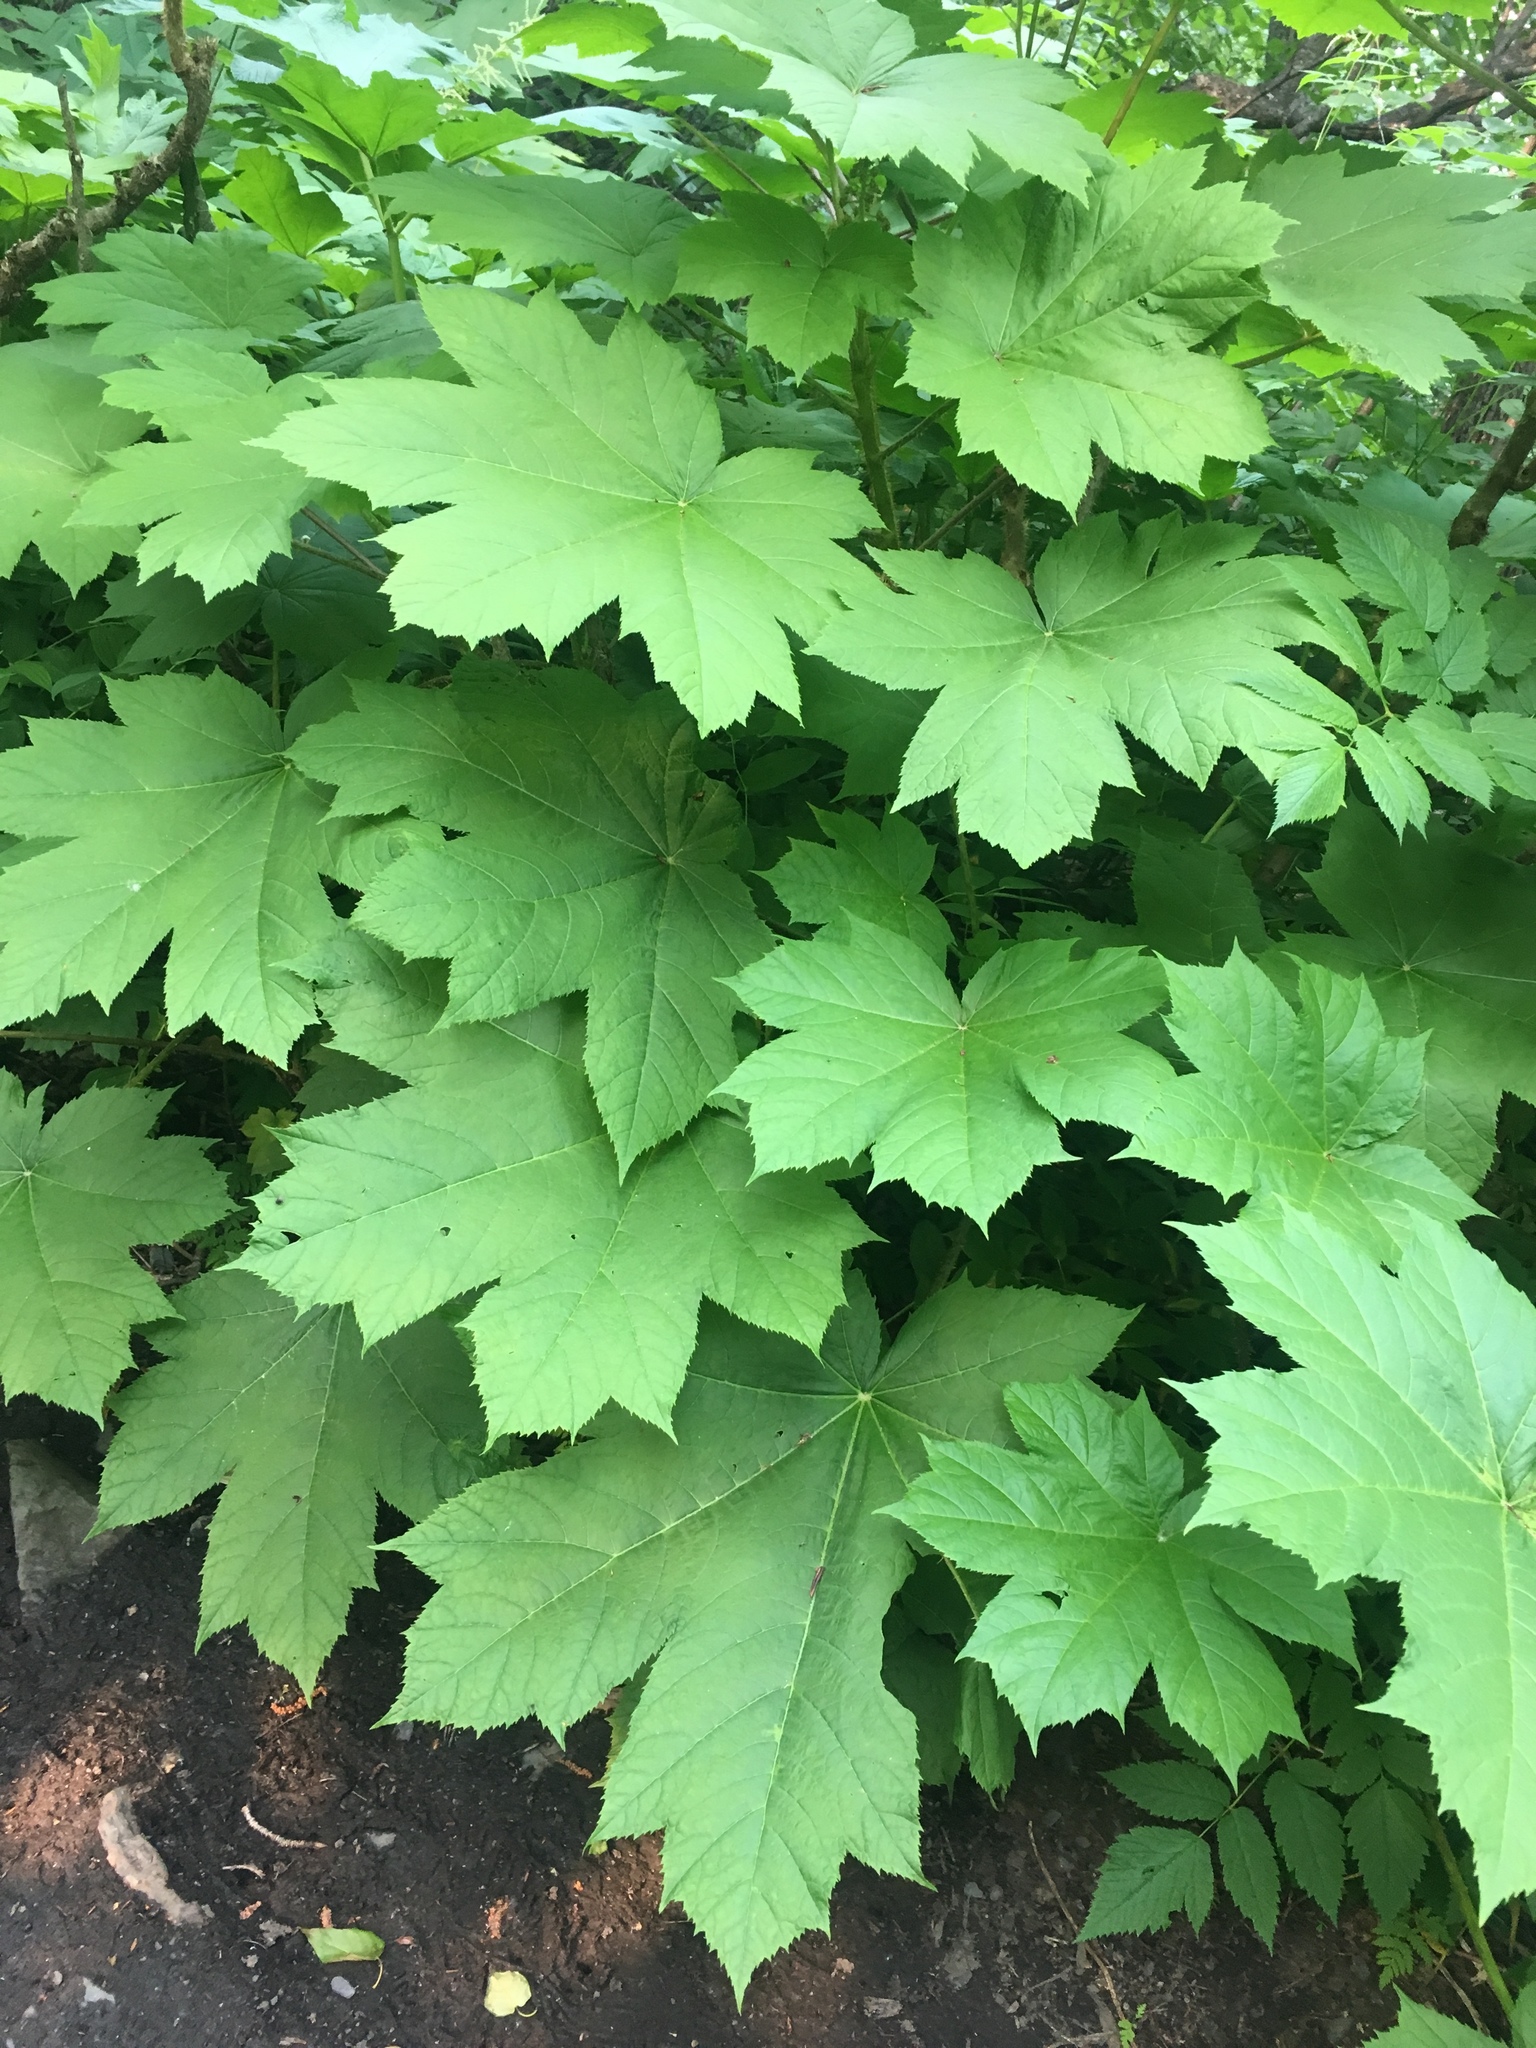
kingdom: Plantae
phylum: Tracheophyta
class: Magnoliopsida
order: Apiales
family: Araliaceae
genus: Oplopanax
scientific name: Oplopanax horridus
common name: Devil's walking-stick
